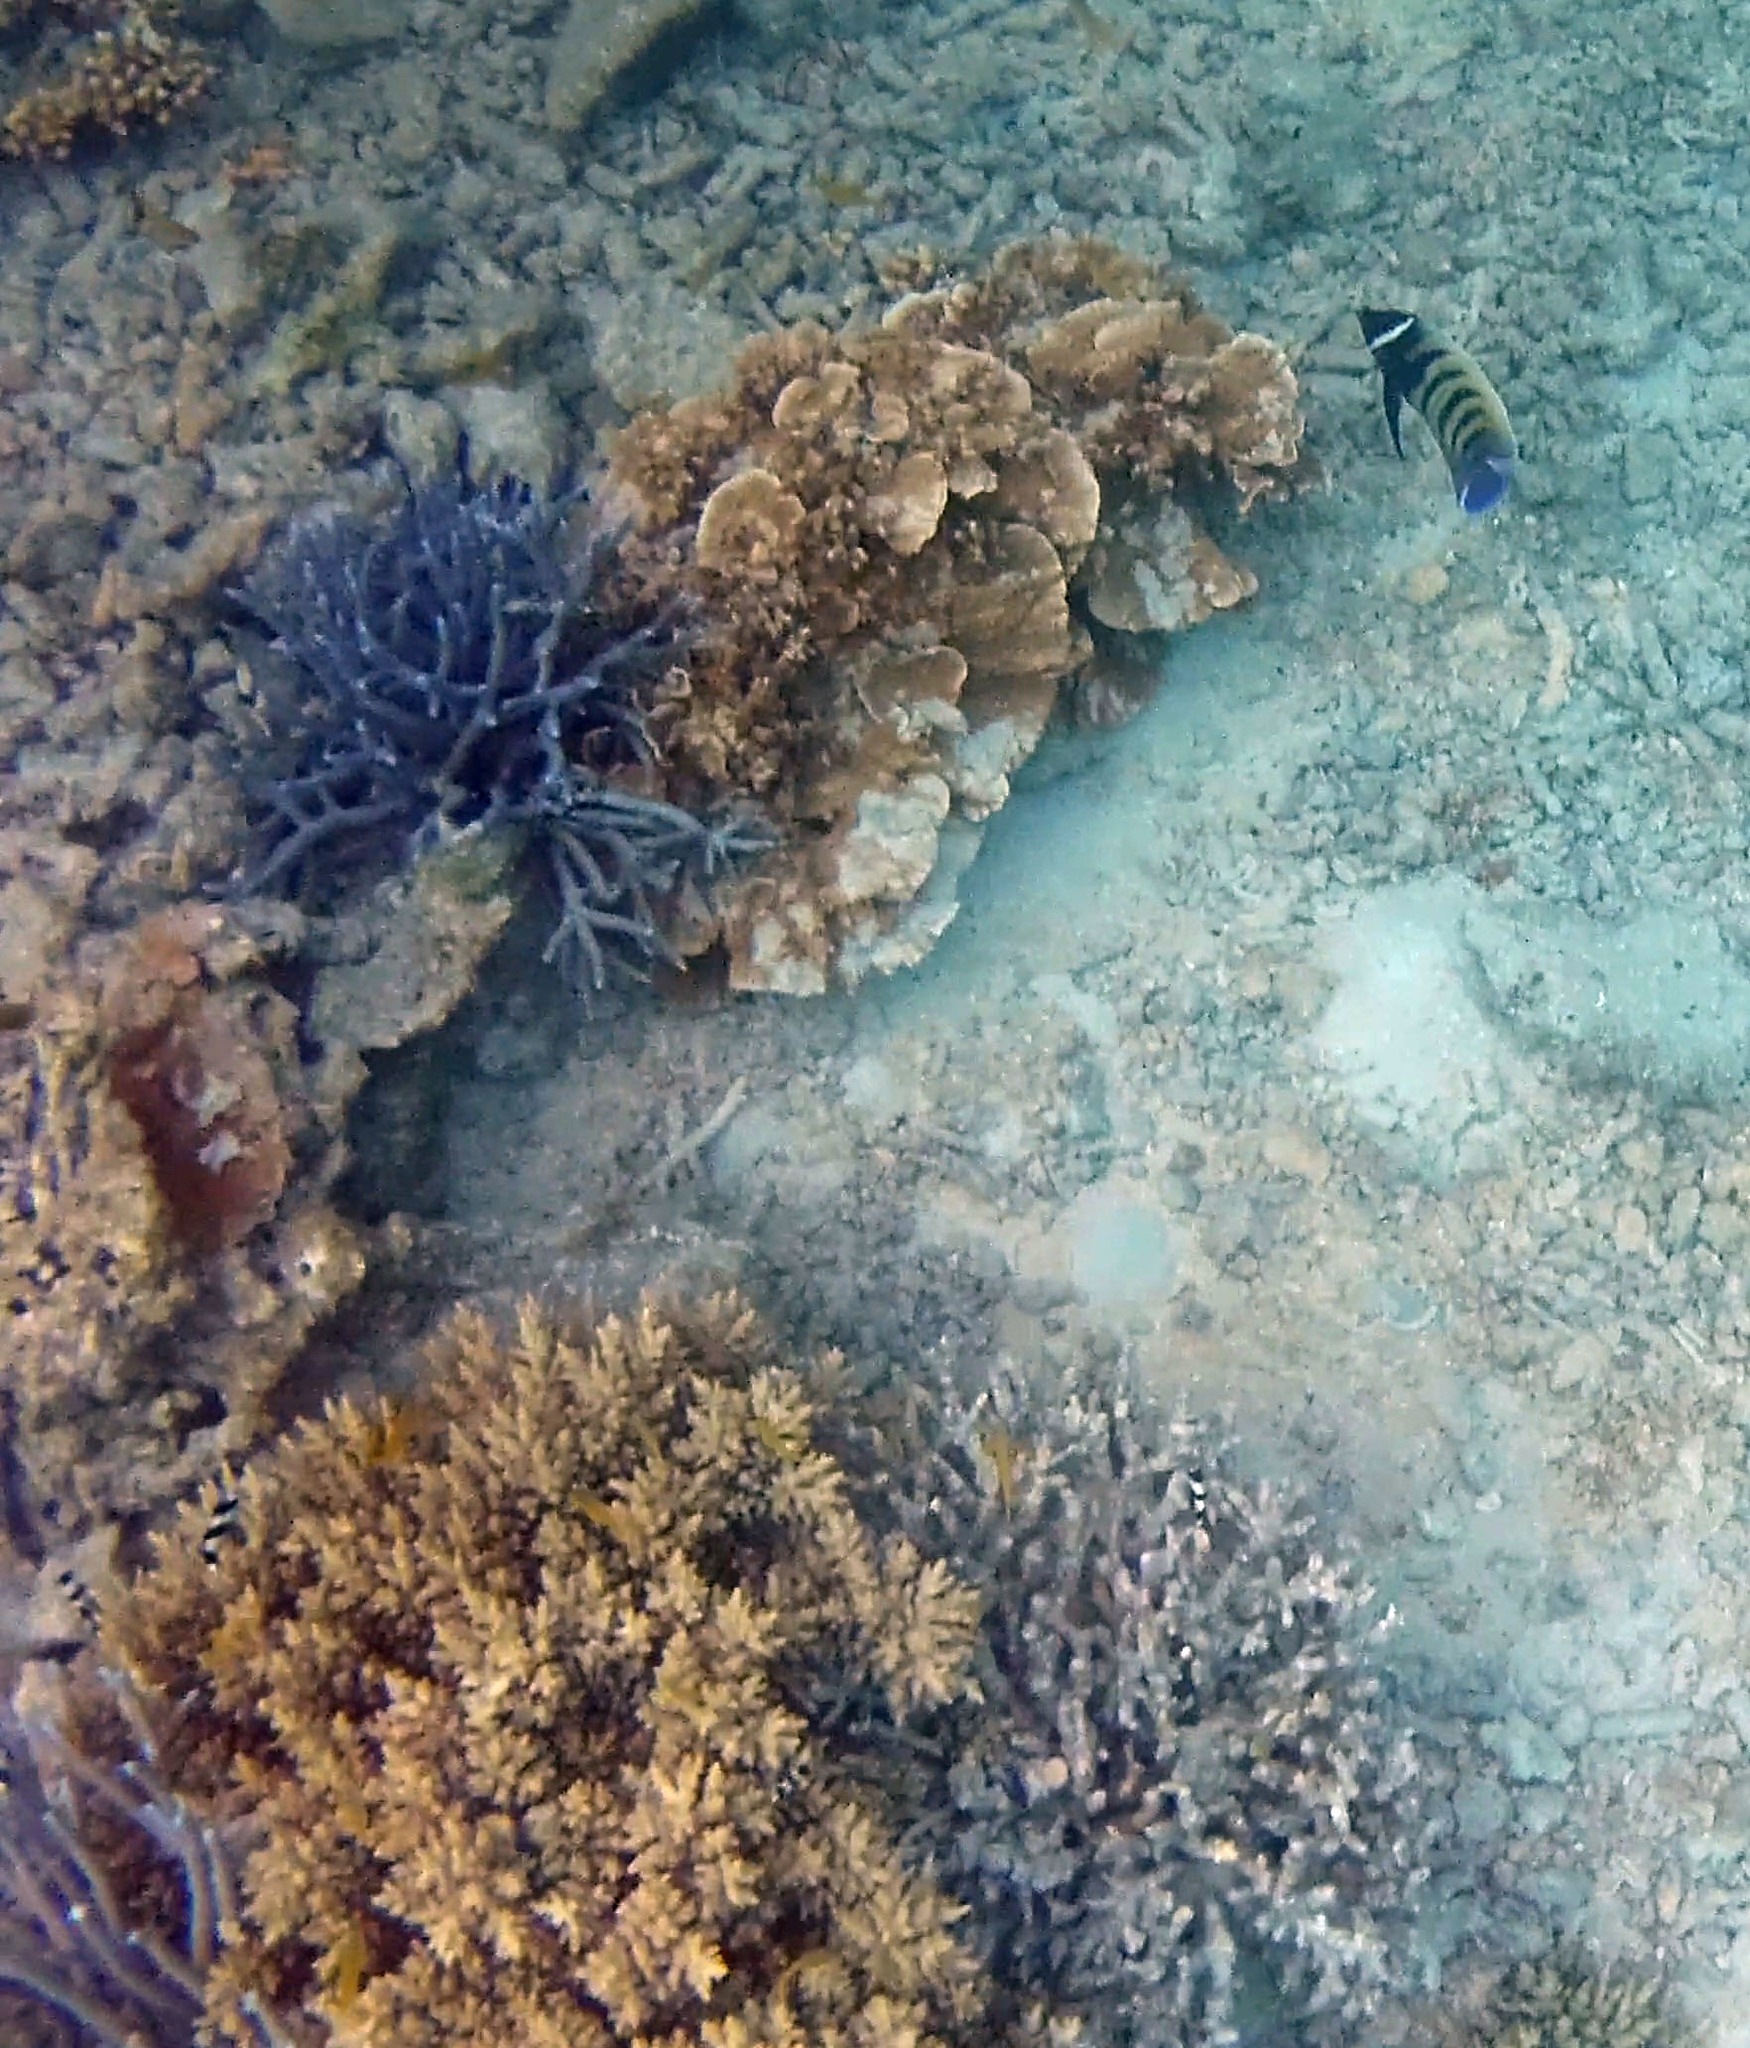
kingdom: Animalia
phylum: Chordata
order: Perciformes
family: Pomacanthidae
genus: Pomacanthus
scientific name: Pomacanthus sexstriatus
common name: Six-banded angelfish
